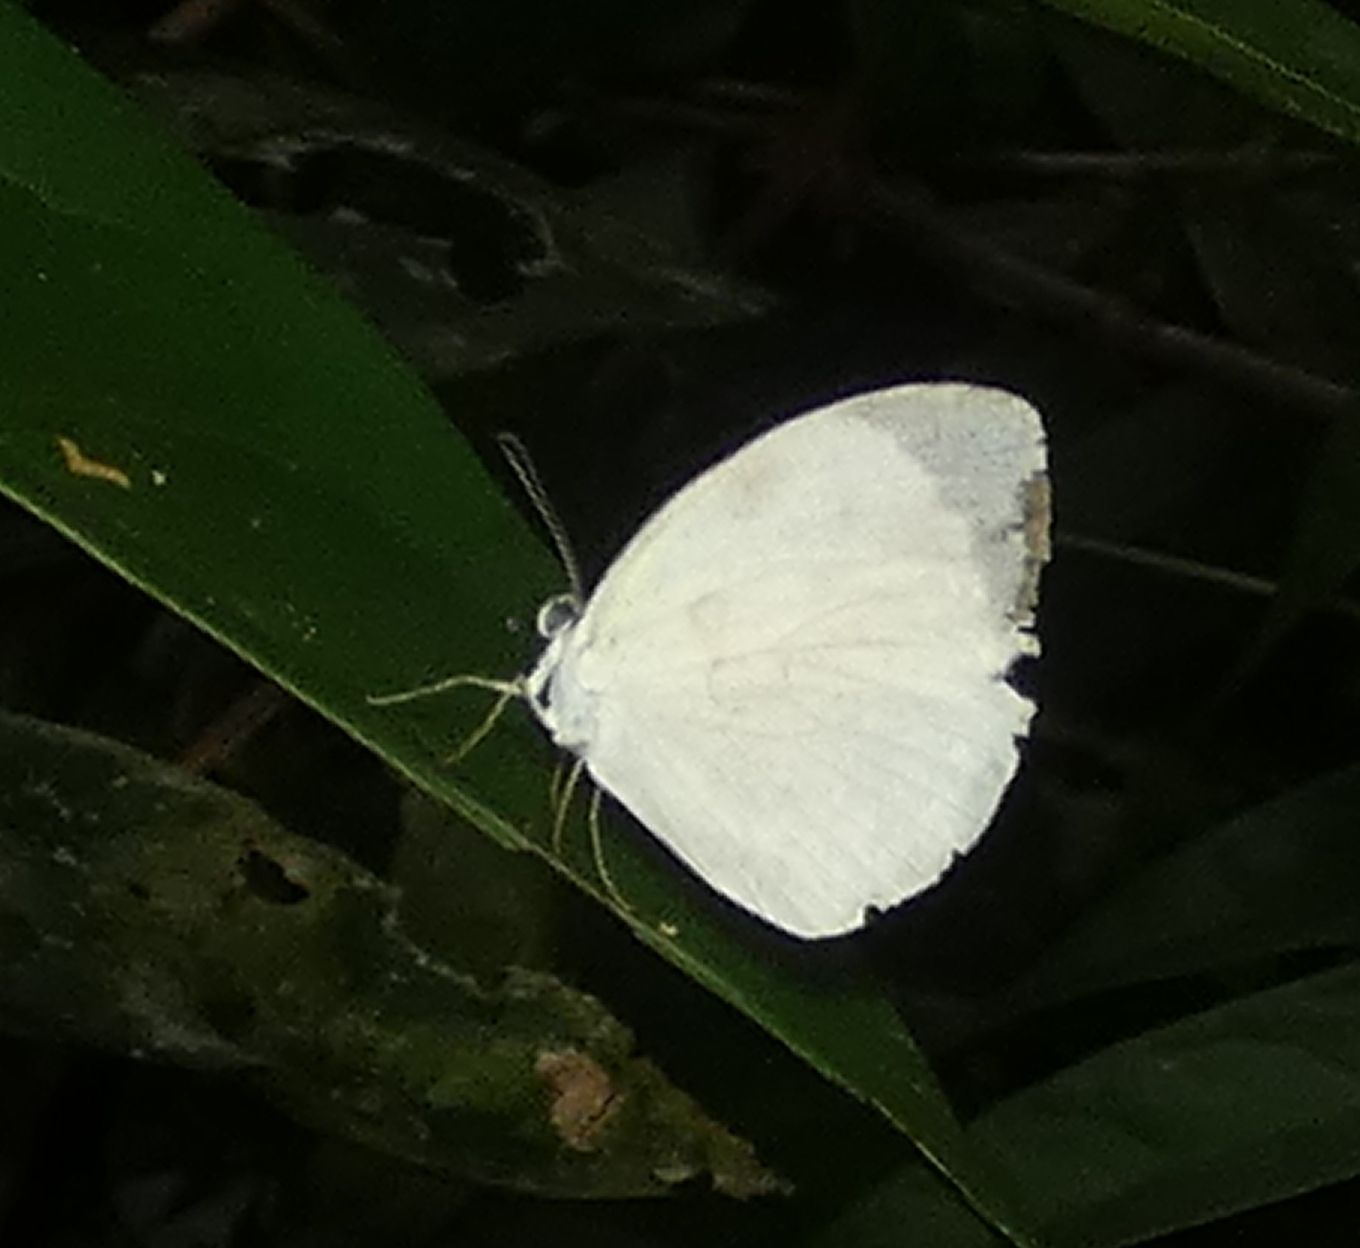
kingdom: Animalia
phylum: Arthropoda
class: Insecta
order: Lepidoptera
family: Pieridae
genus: Abaeis
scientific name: Abaeis albula
